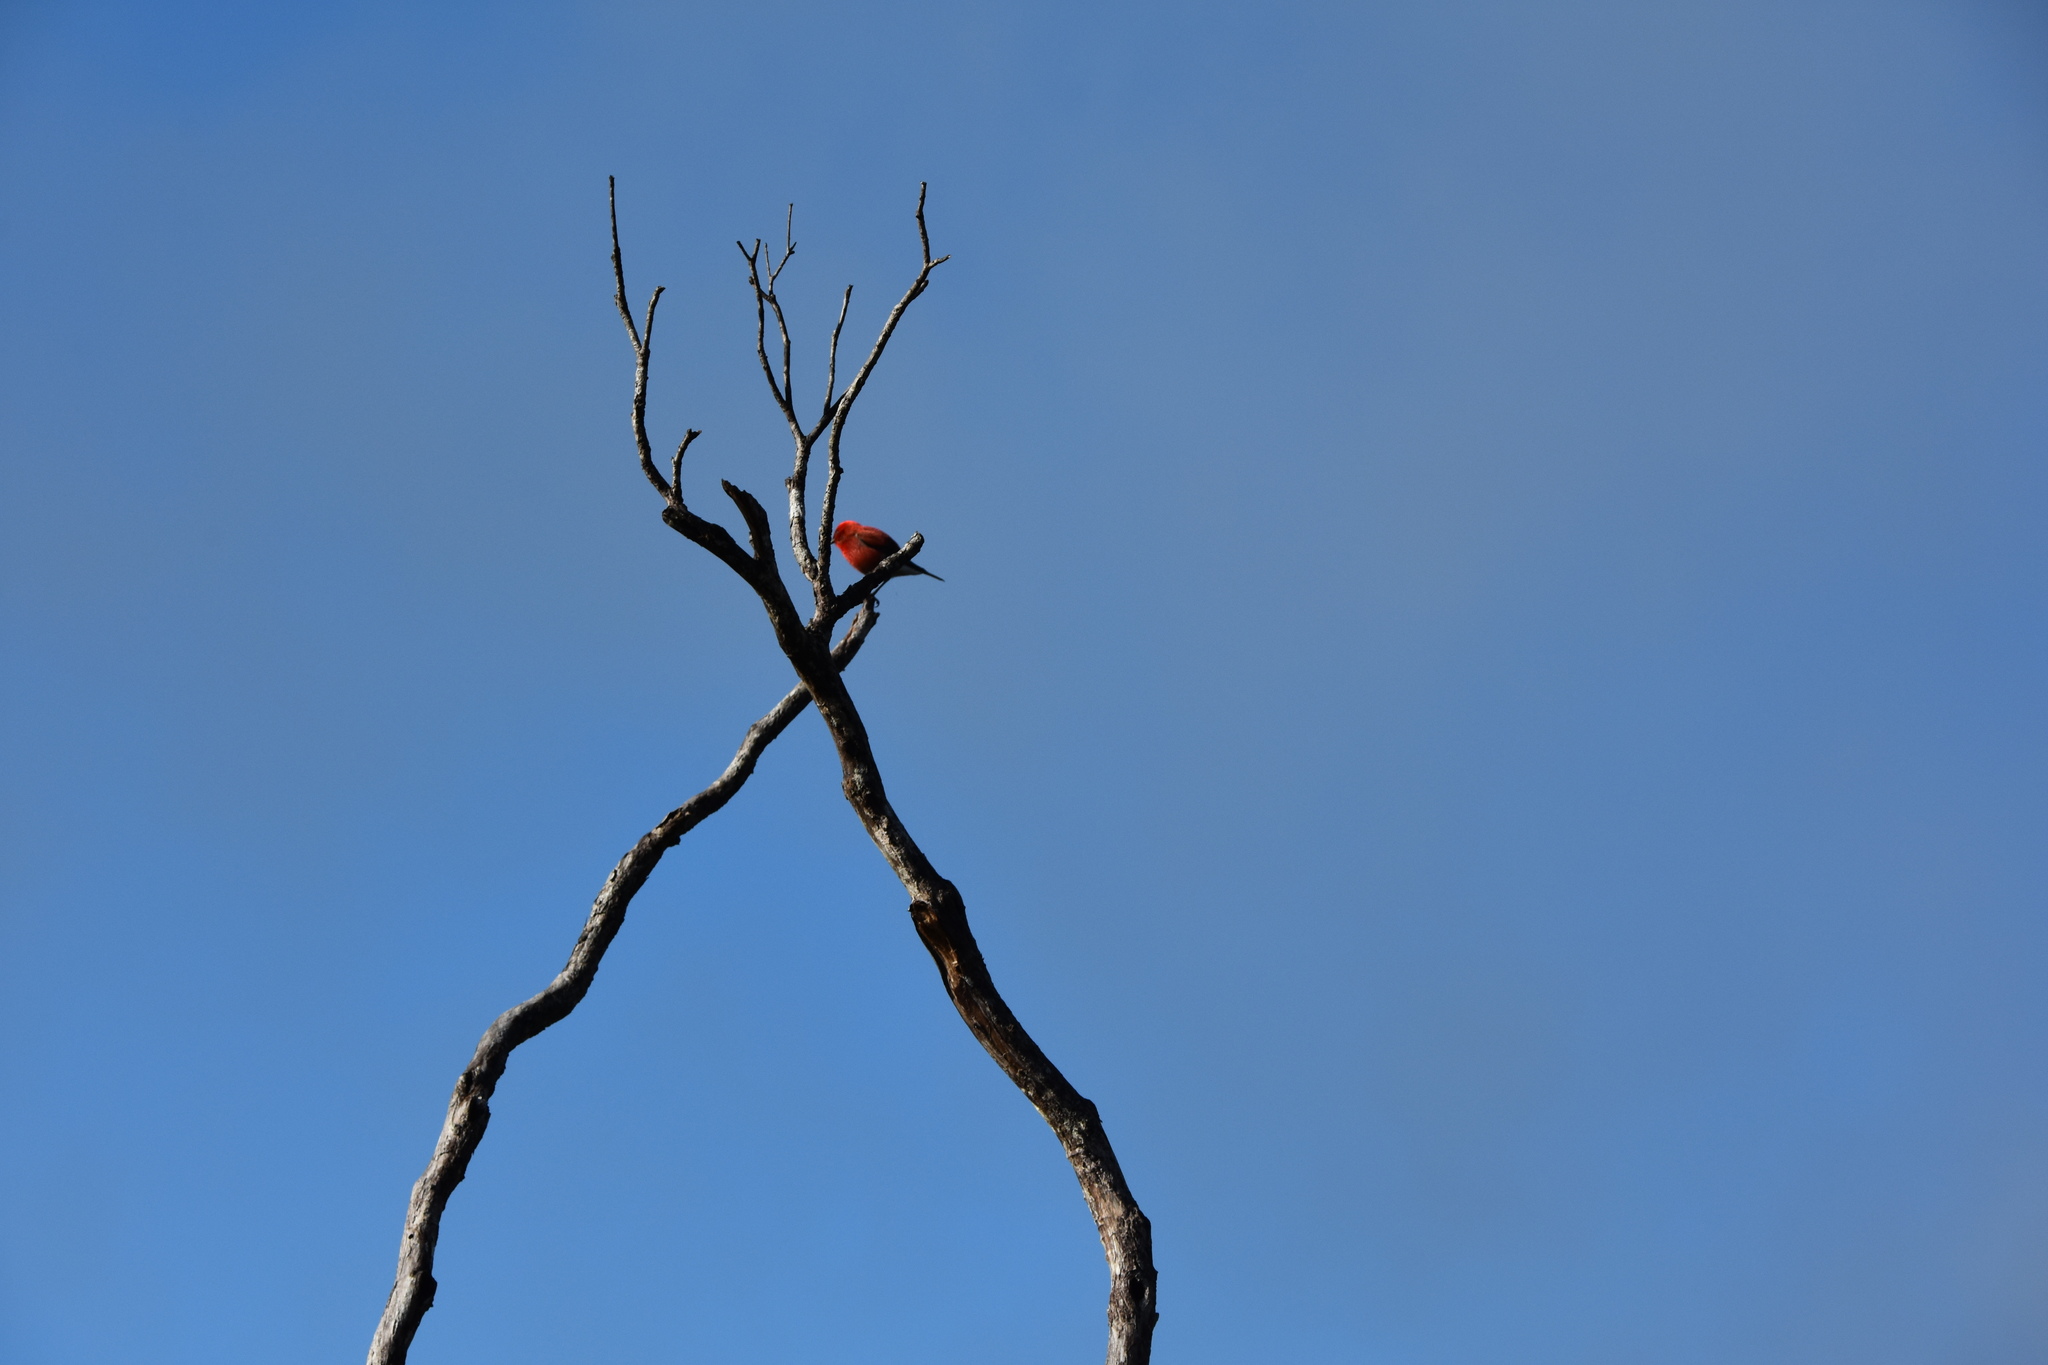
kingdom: Animalia
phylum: Chordata
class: Aves
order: Passeriformes
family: Fringillidae
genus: Himatione
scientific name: Himatione sanguinea
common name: Apapane
